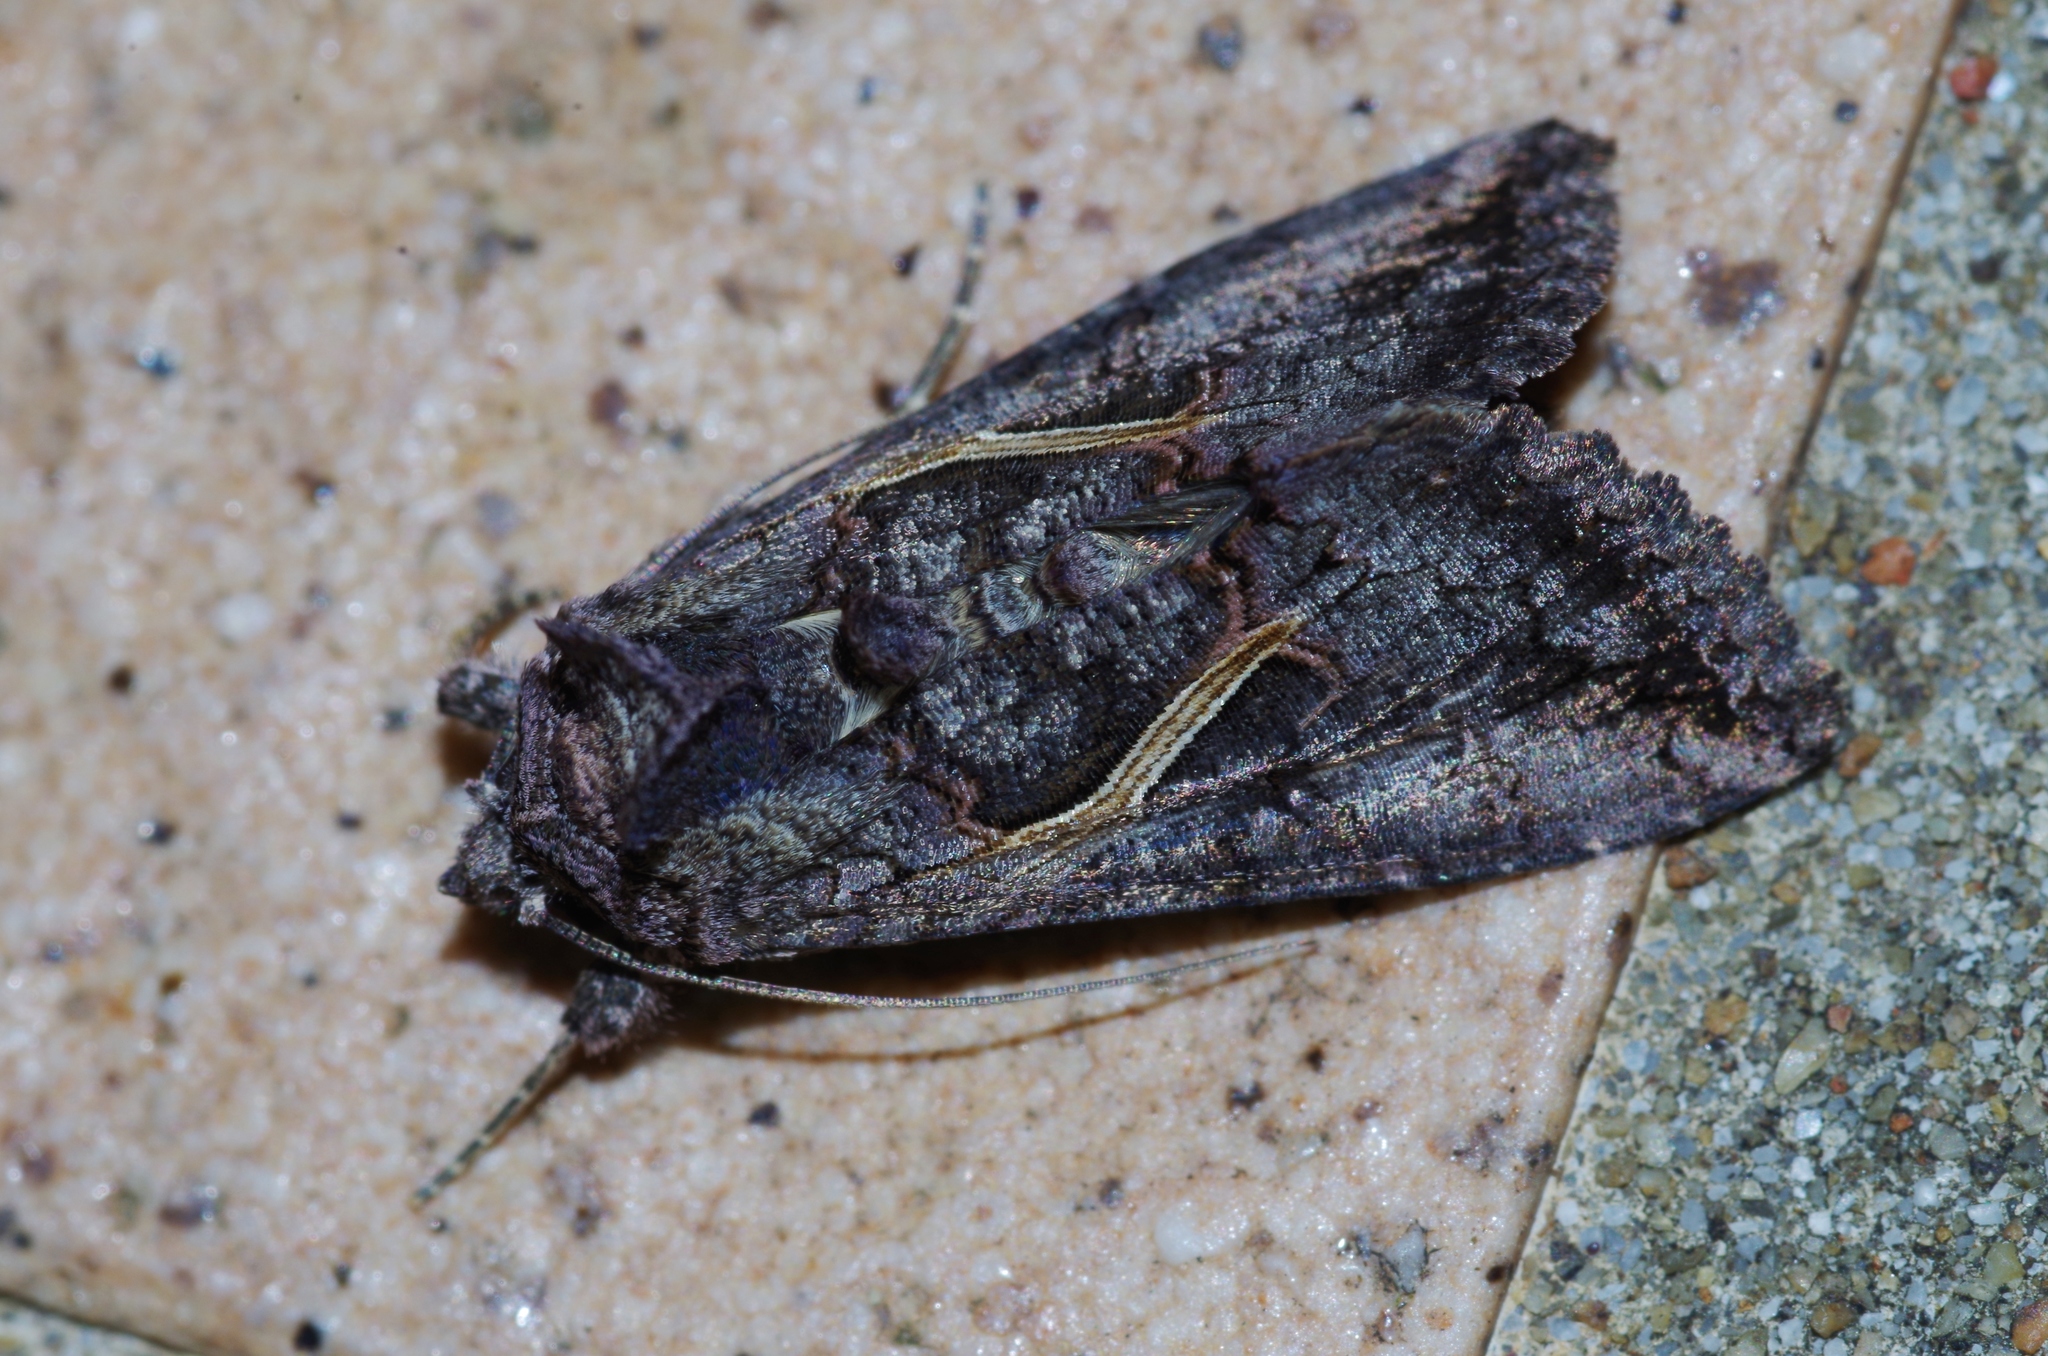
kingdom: Animalia
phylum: Arthropoda
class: Insecta
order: Lepidoptera
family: Noctuidae
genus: Ctenoplusia
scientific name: Ctenoplusia albostriata
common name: Moth
